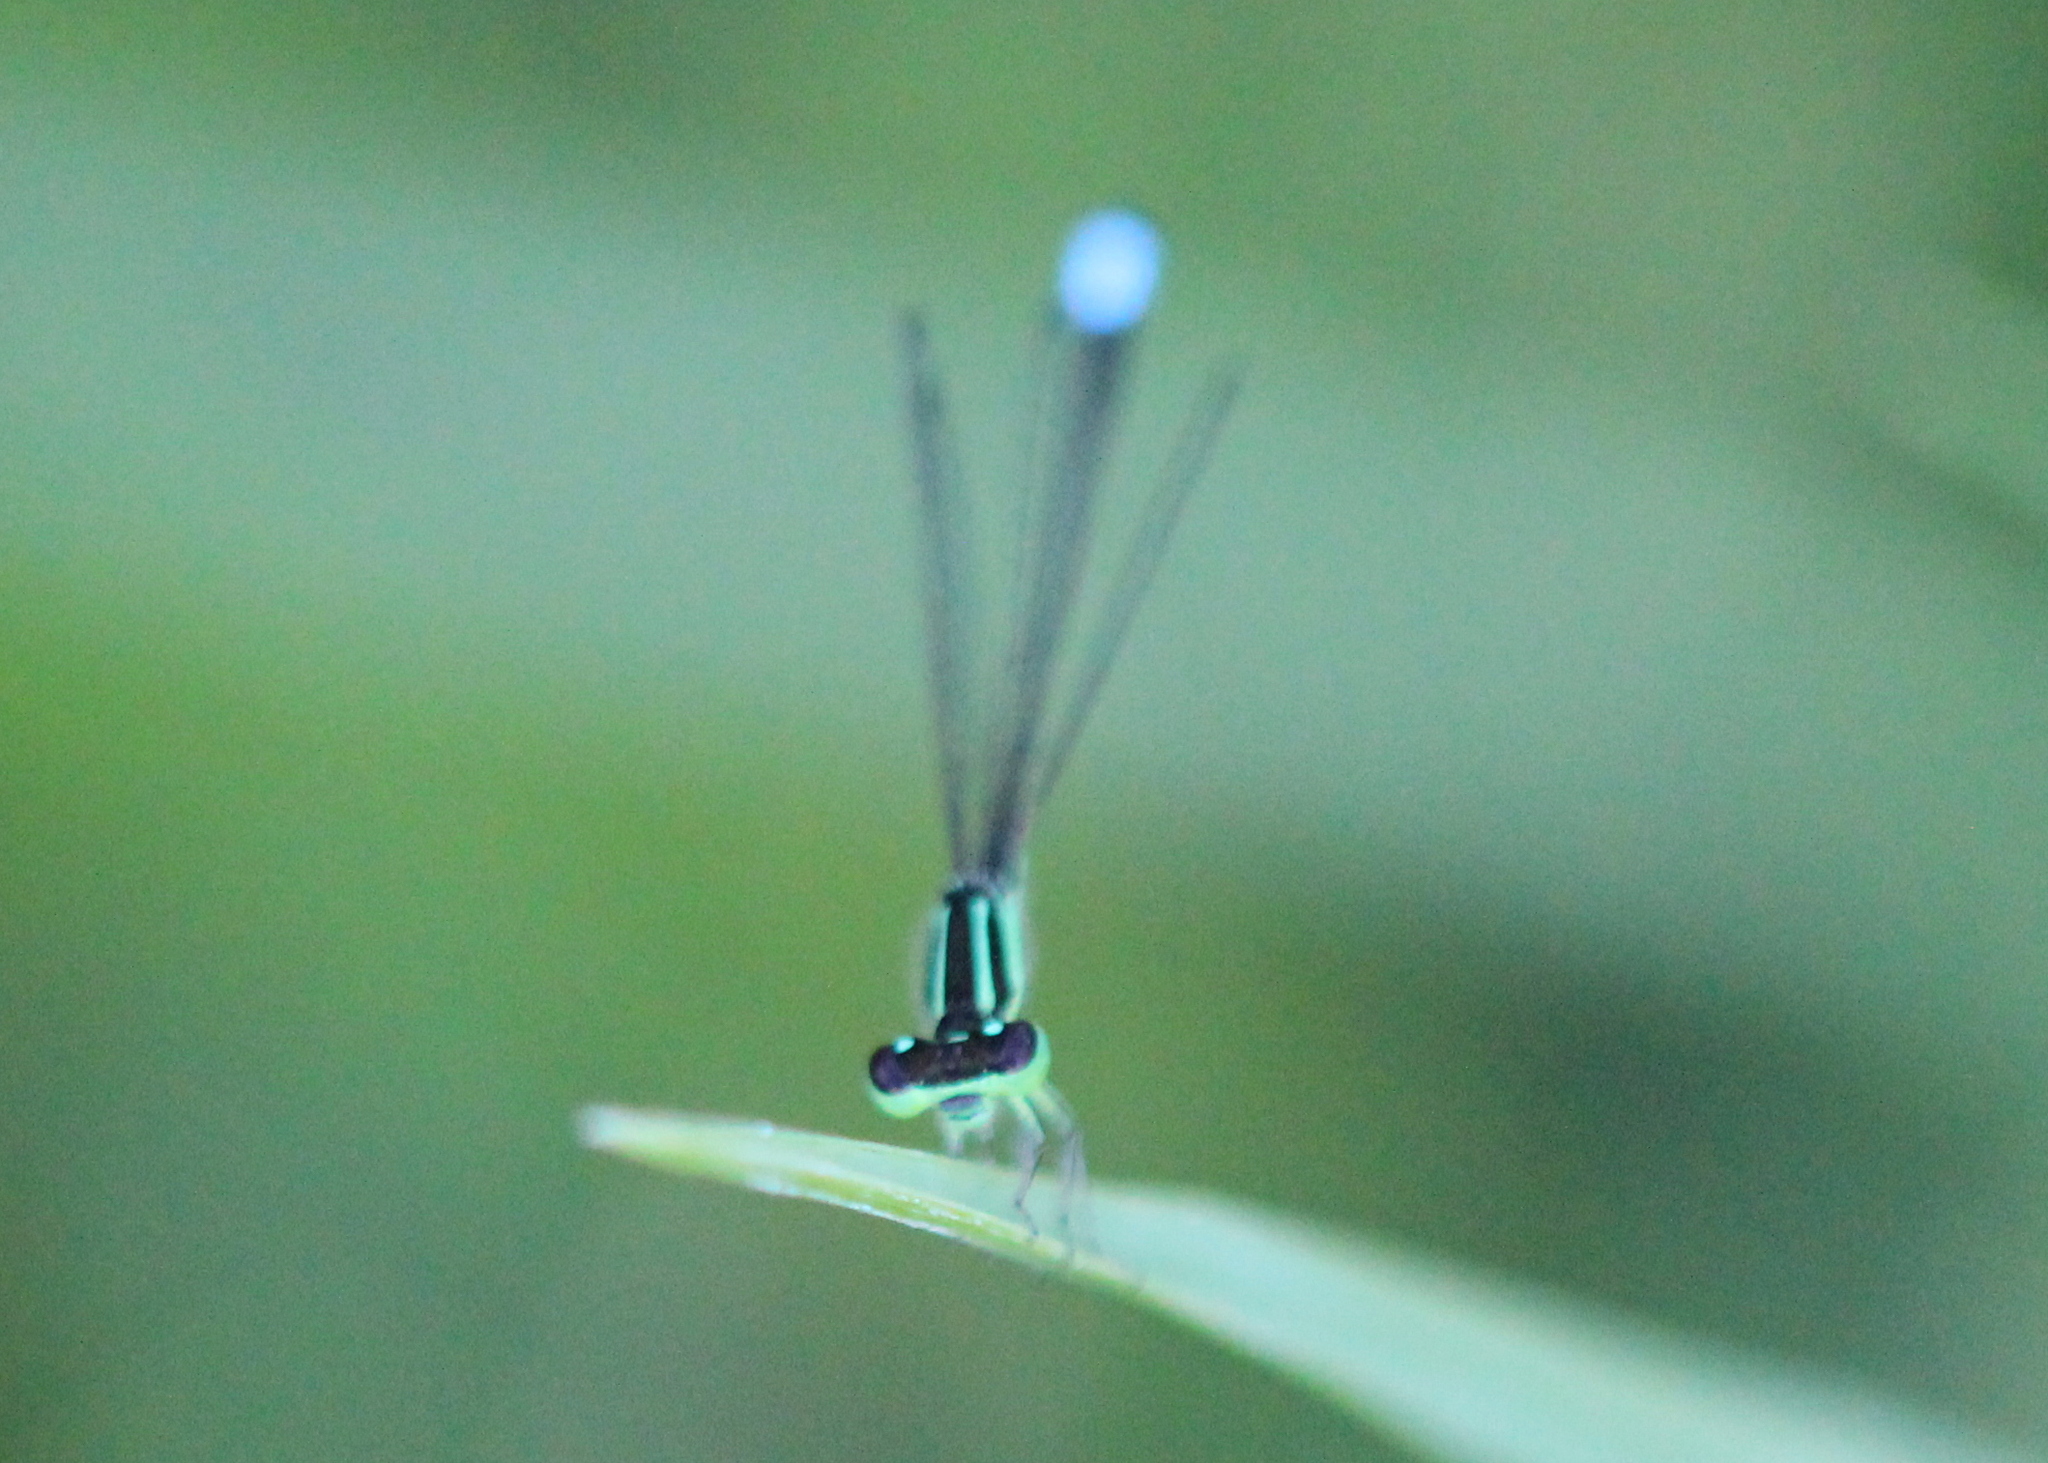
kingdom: Animalia
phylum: Arthropoda
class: Insecta
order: Odonata
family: Coenagrionidae
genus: Ischnura
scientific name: Ischnura verticalis
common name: Eastern forktail
